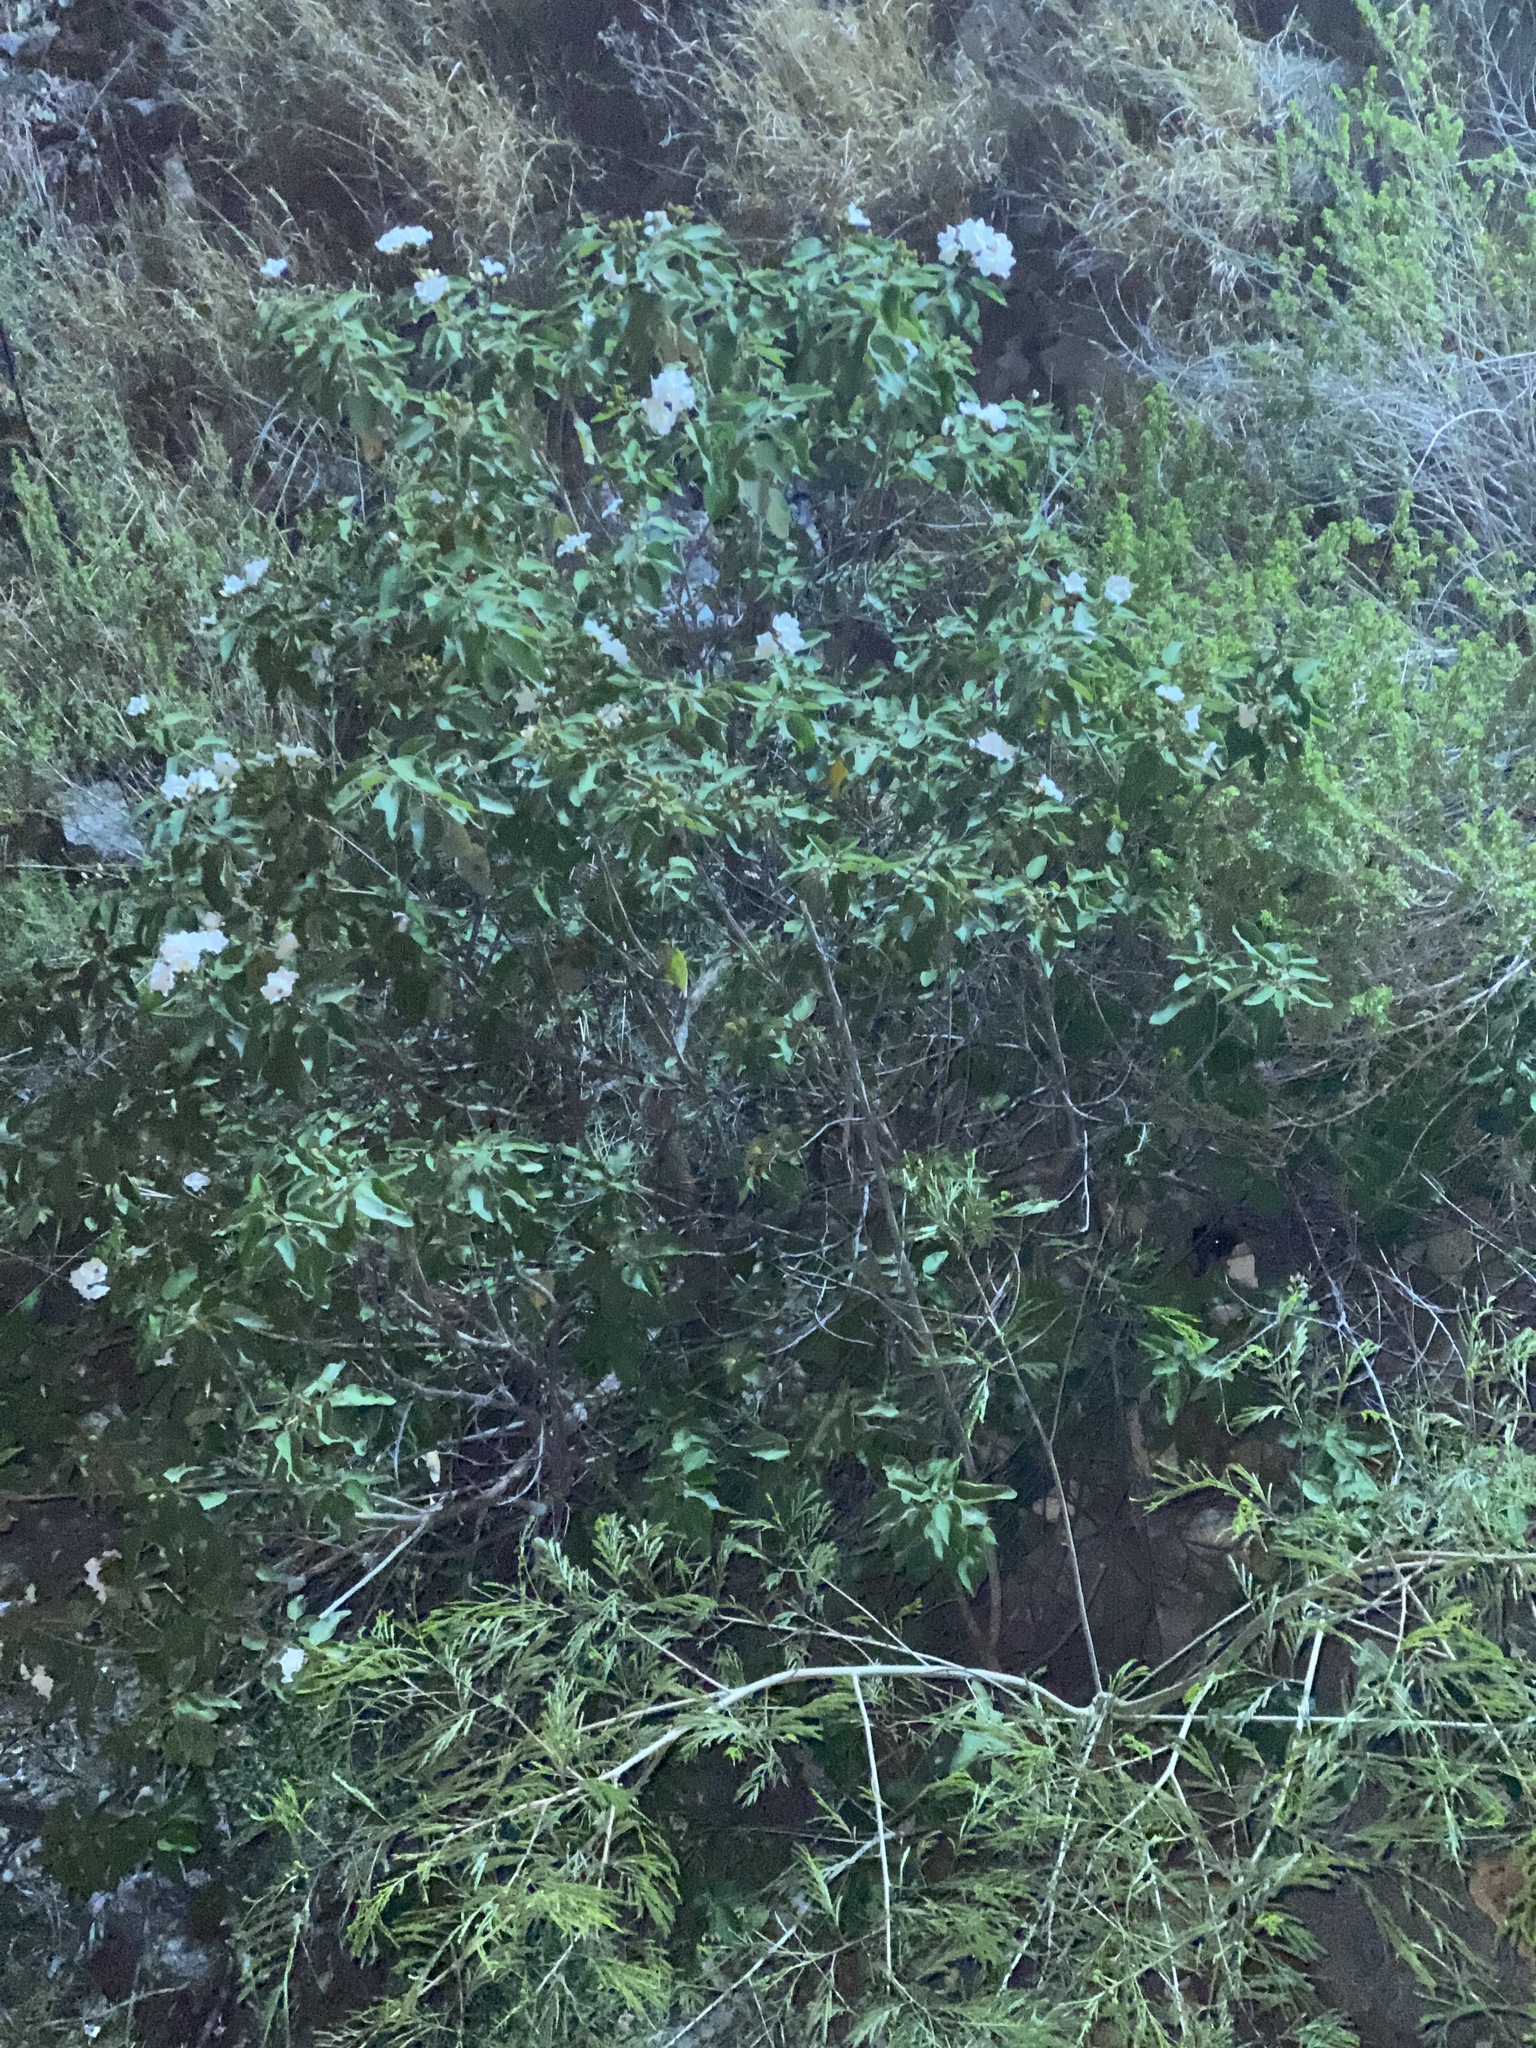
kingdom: Plantae
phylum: Tracheophyta
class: Magnoliopsida
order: Boraginales
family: Cordiaceae
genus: Cordia
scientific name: Cordia boissieri
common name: Mexican-olive
